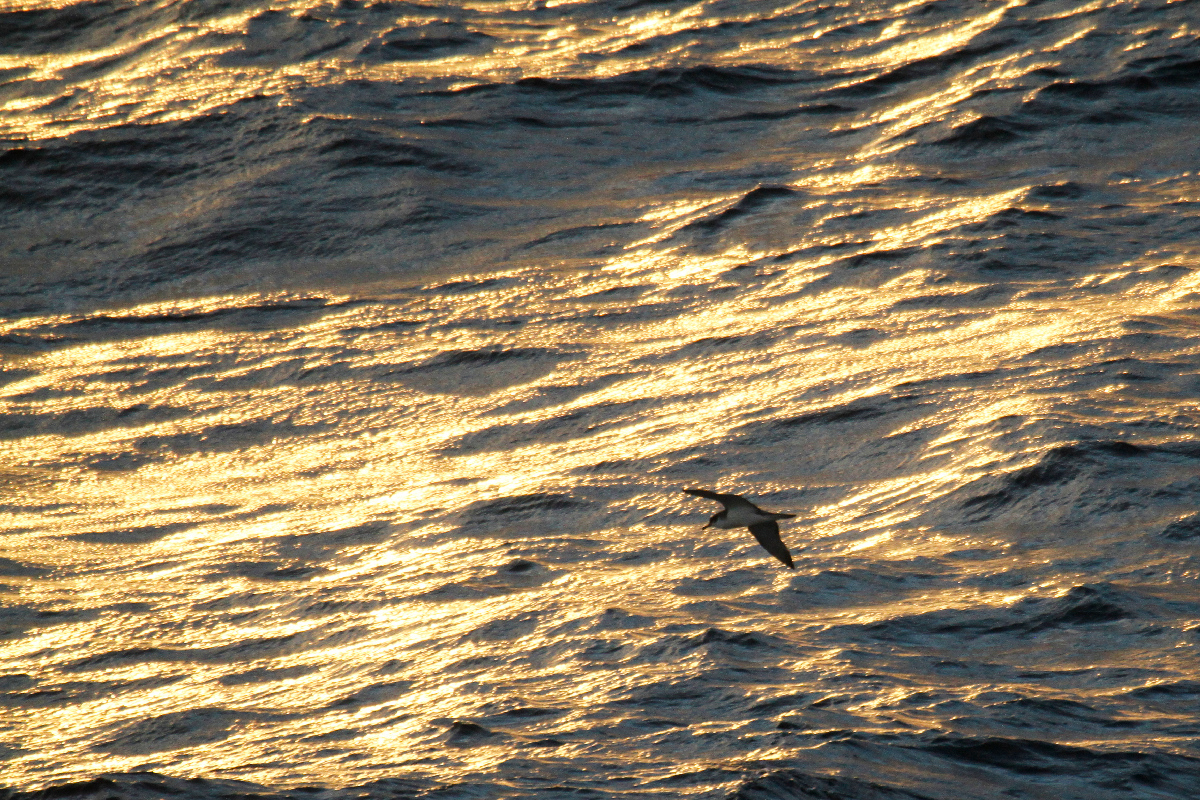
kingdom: Animalia
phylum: Chordata
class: Aves
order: Procellariiformes
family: Procellariidae
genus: Puffinus
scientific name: Puffinus bulleri
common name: Buller's shearwater
